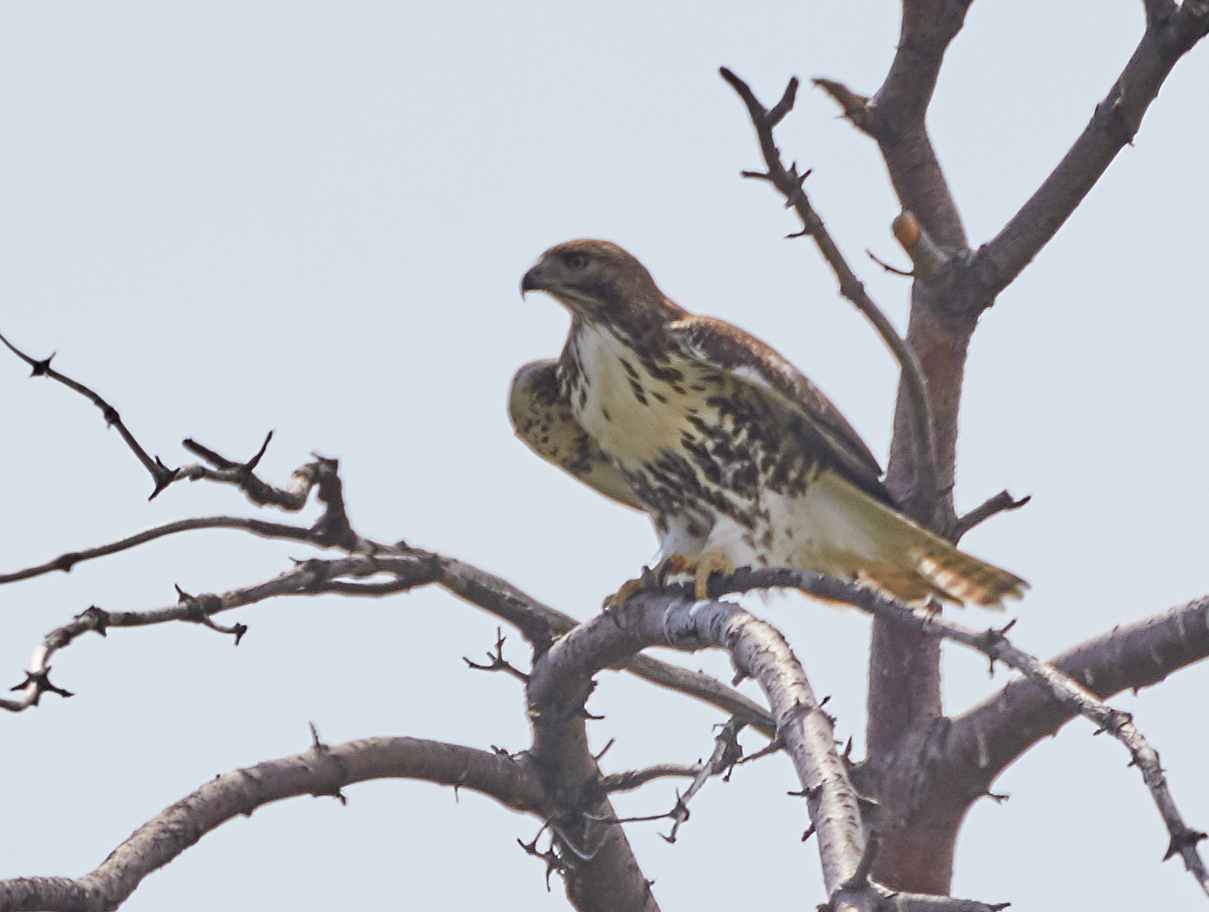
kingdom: Animalia
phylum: Chordata
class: Aves
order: Accipitriformes
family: Accipitridae
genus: Buteo
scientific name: Buteo jamaicensis
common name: Red-tailed hawk
